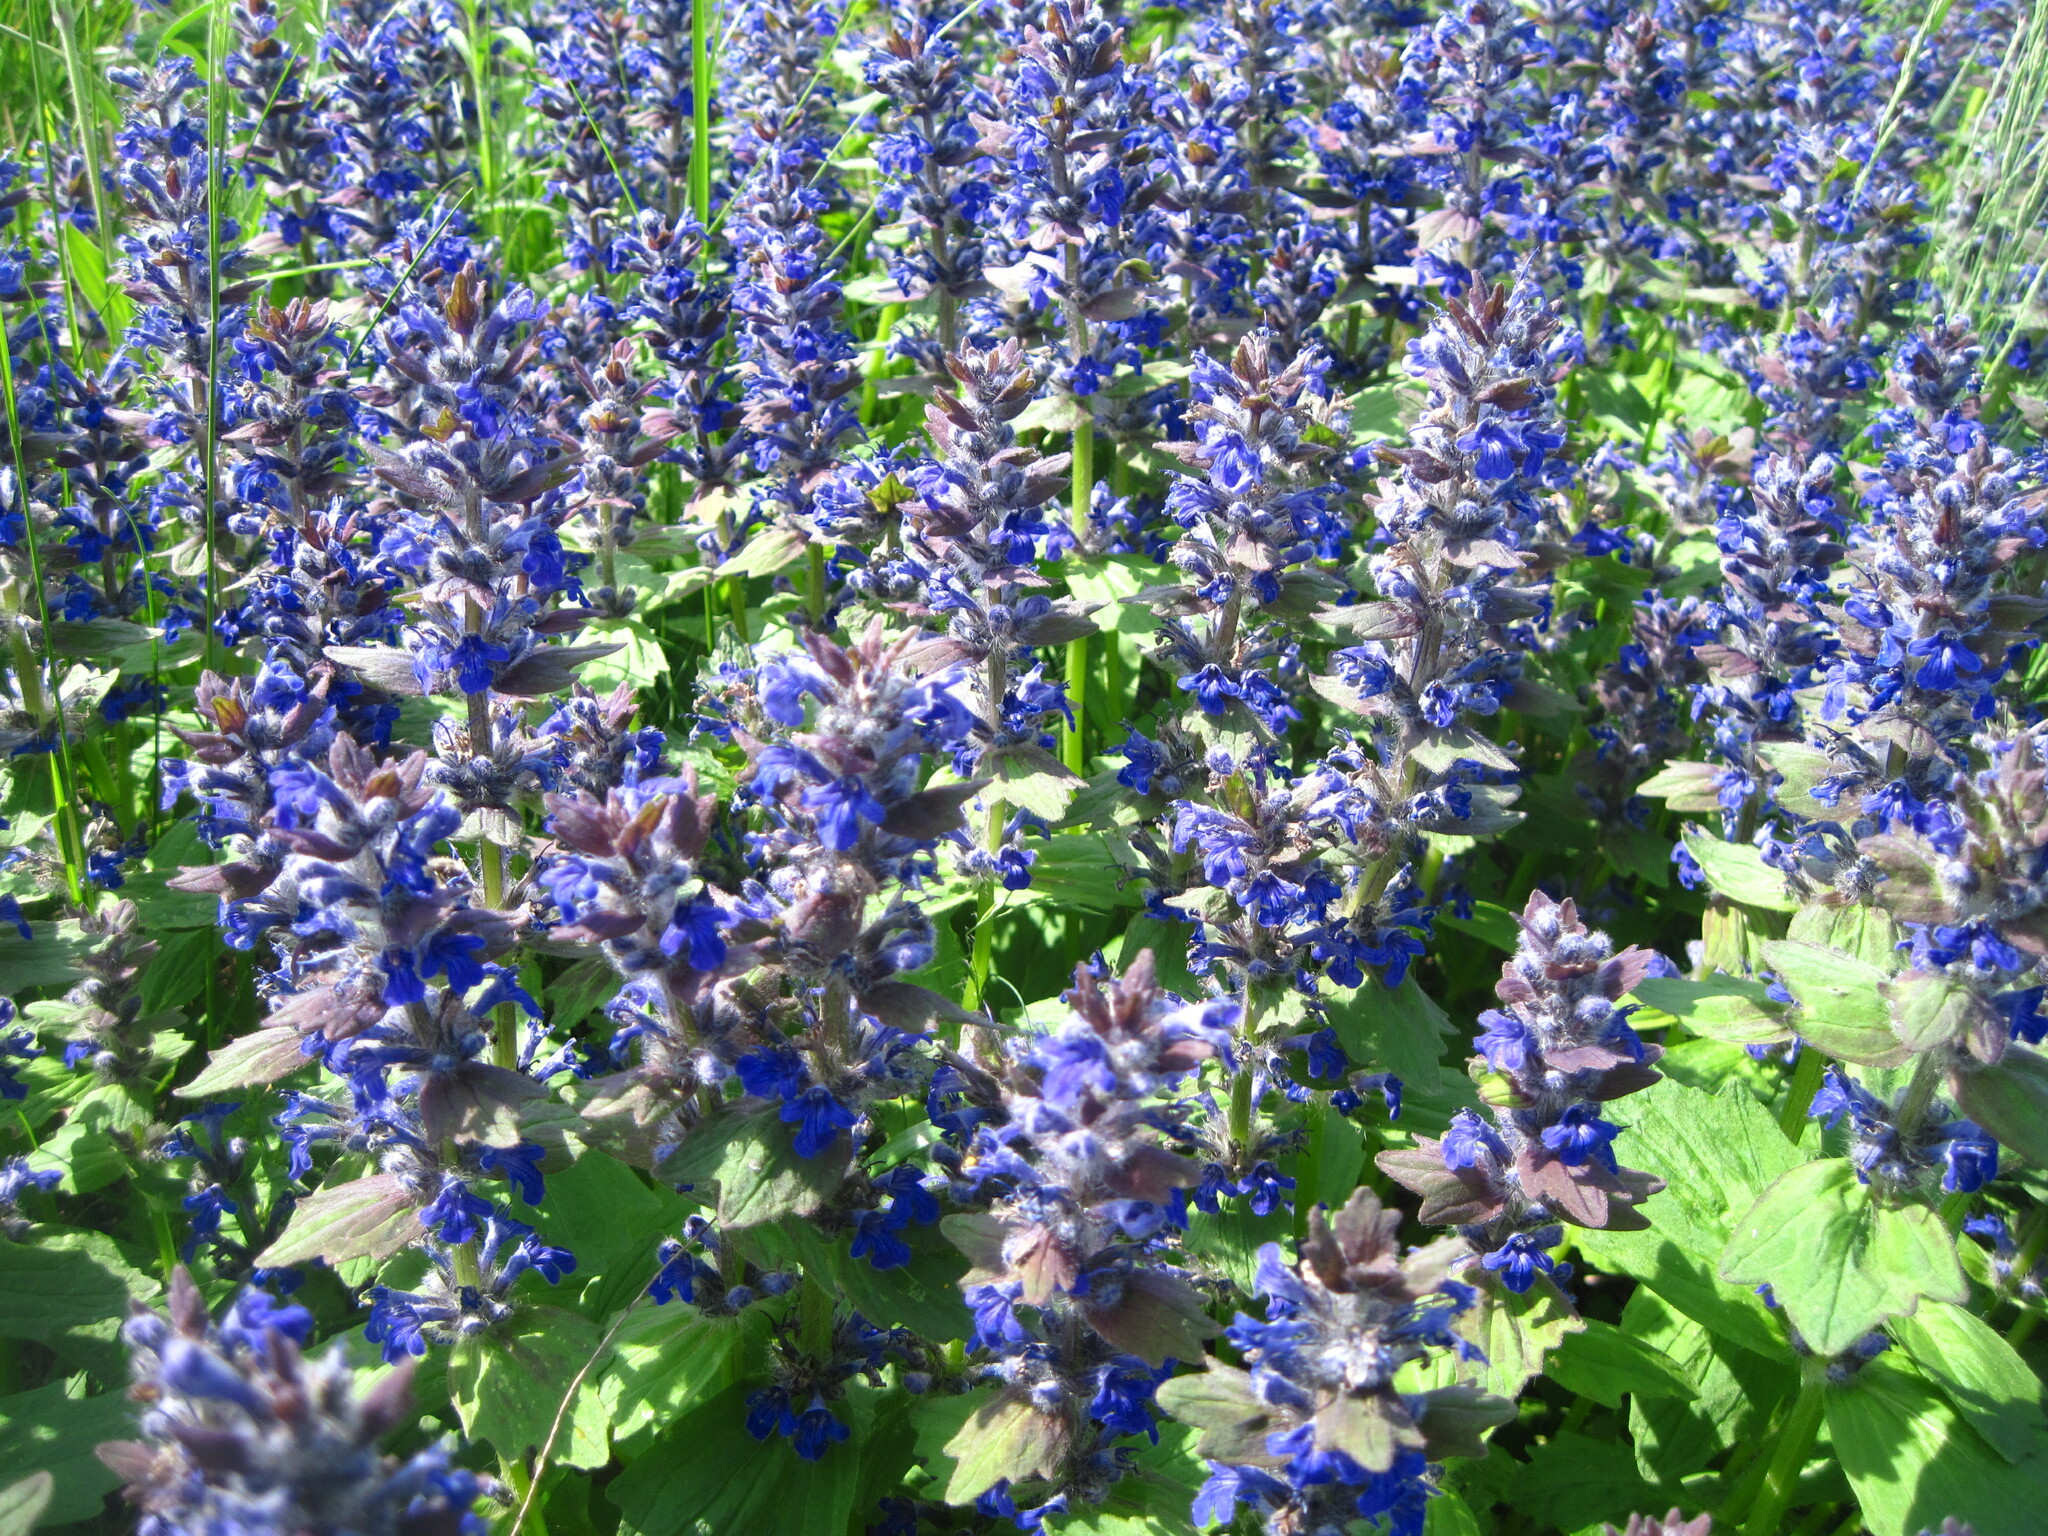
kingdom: Plantae
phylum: Tracheophyta
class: Magnoliopsida
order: Lamiales
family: Lamiaceae
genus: Ajuga
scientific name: Ajuga genevensis
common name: Blue bugle
